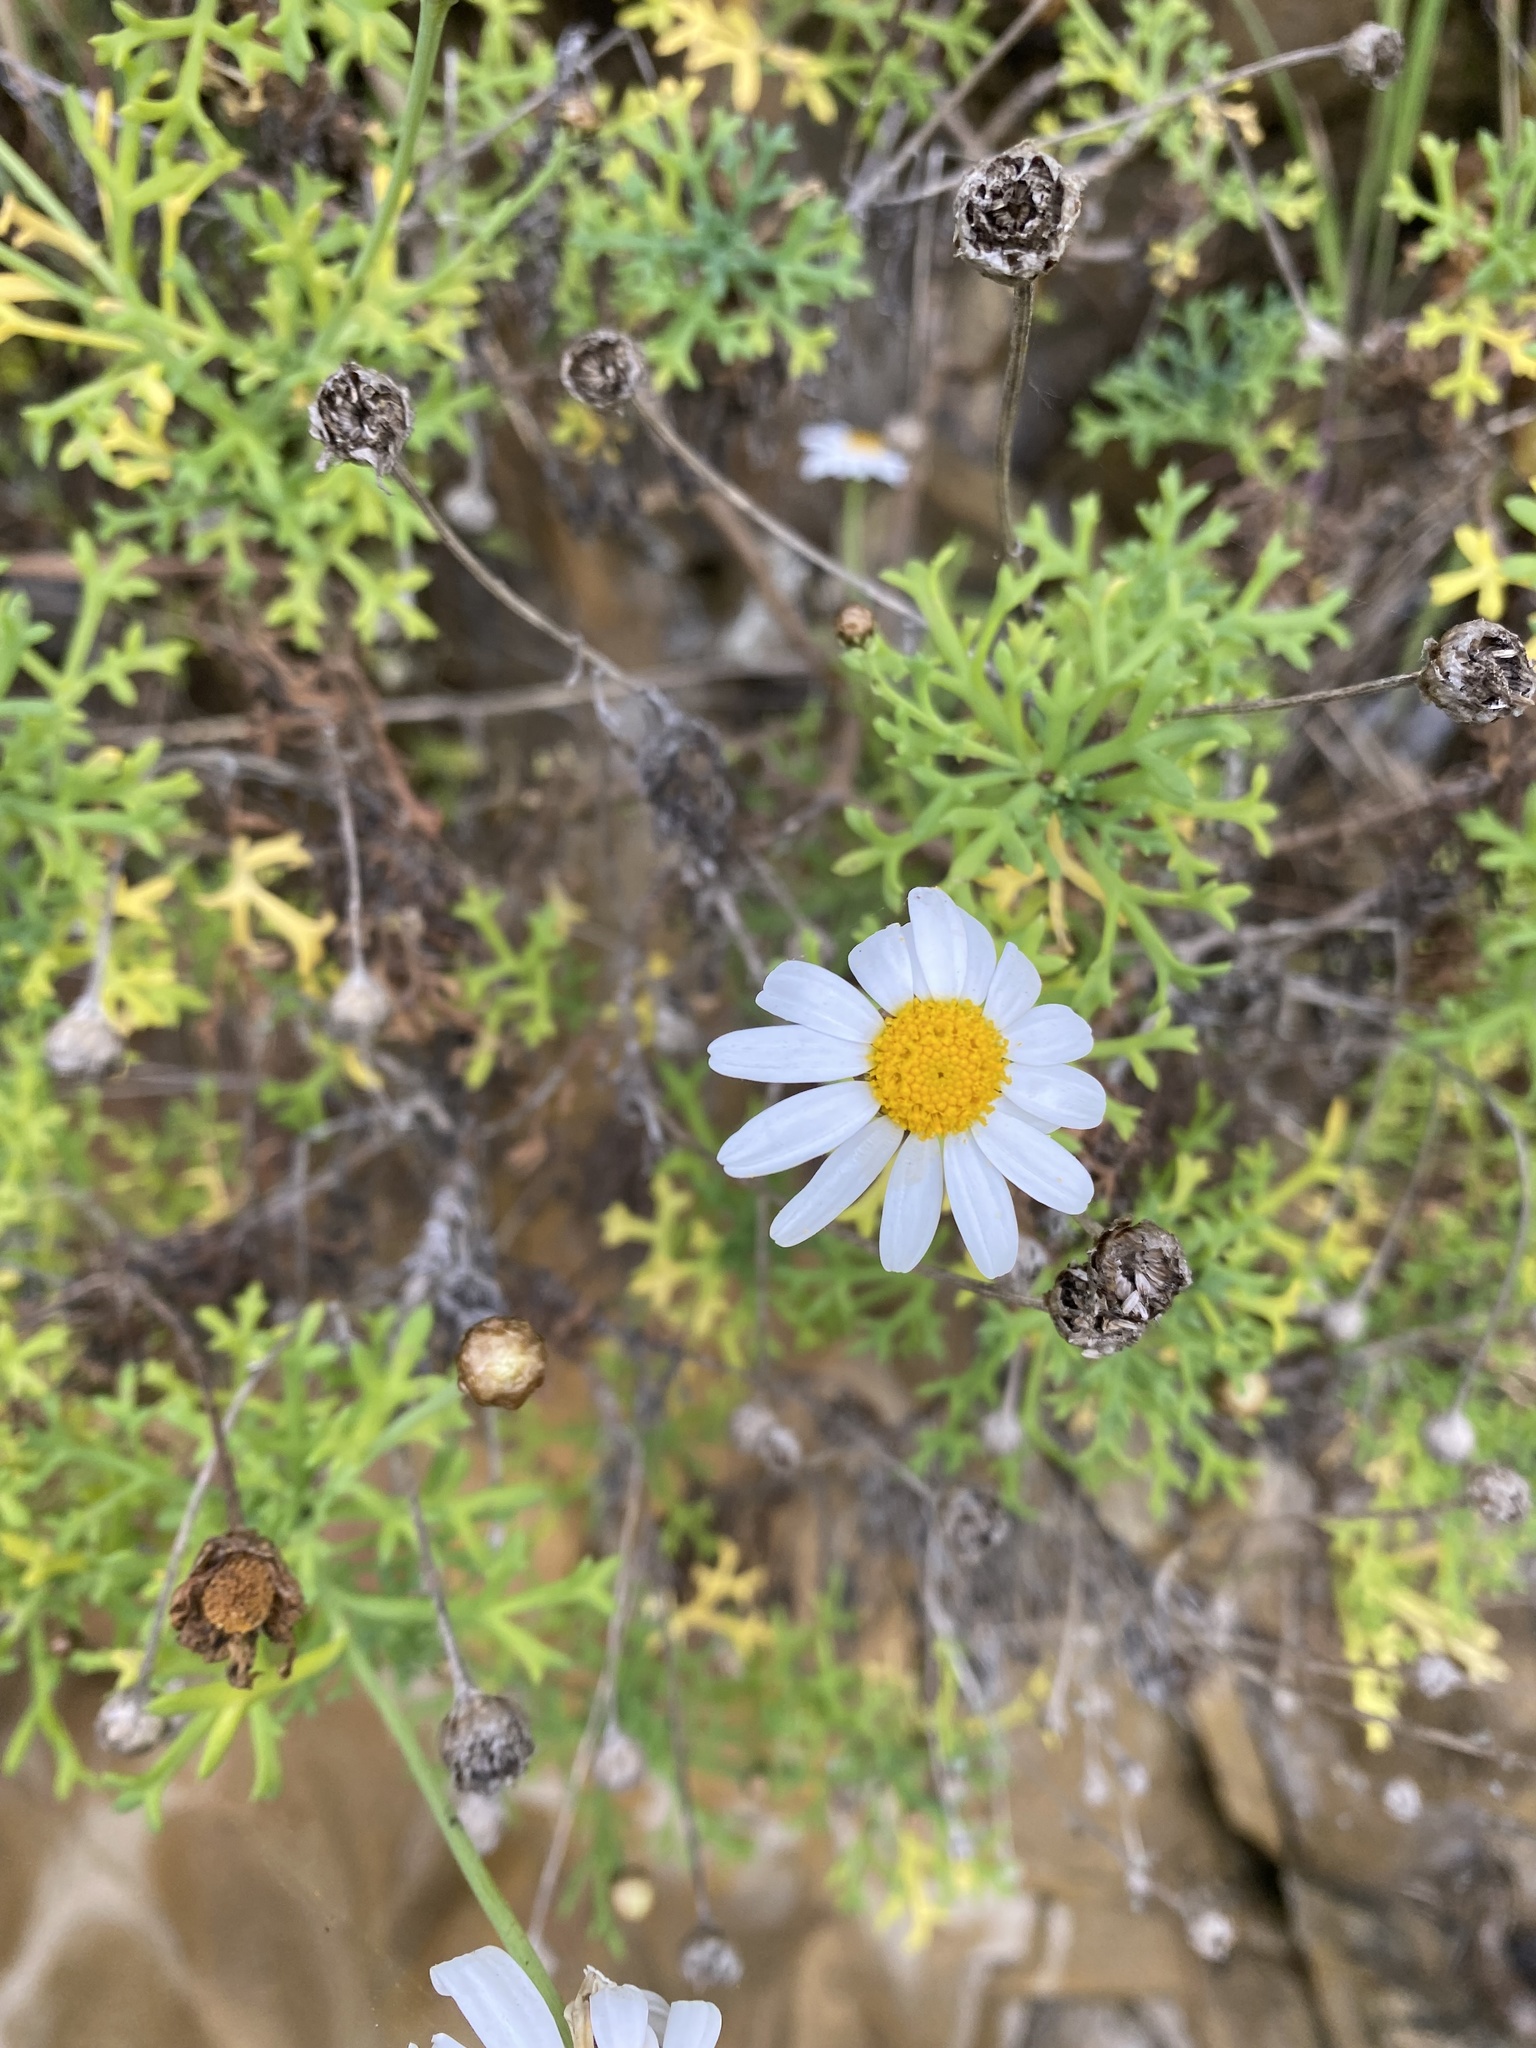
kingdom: Plantae
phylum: Tracheophyta
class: Magnoliopsida
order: Asterales
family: Asteraceae
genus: Argyranthemum
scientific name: Argyranthemum foeniculaceum
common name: Canary island marguerite
